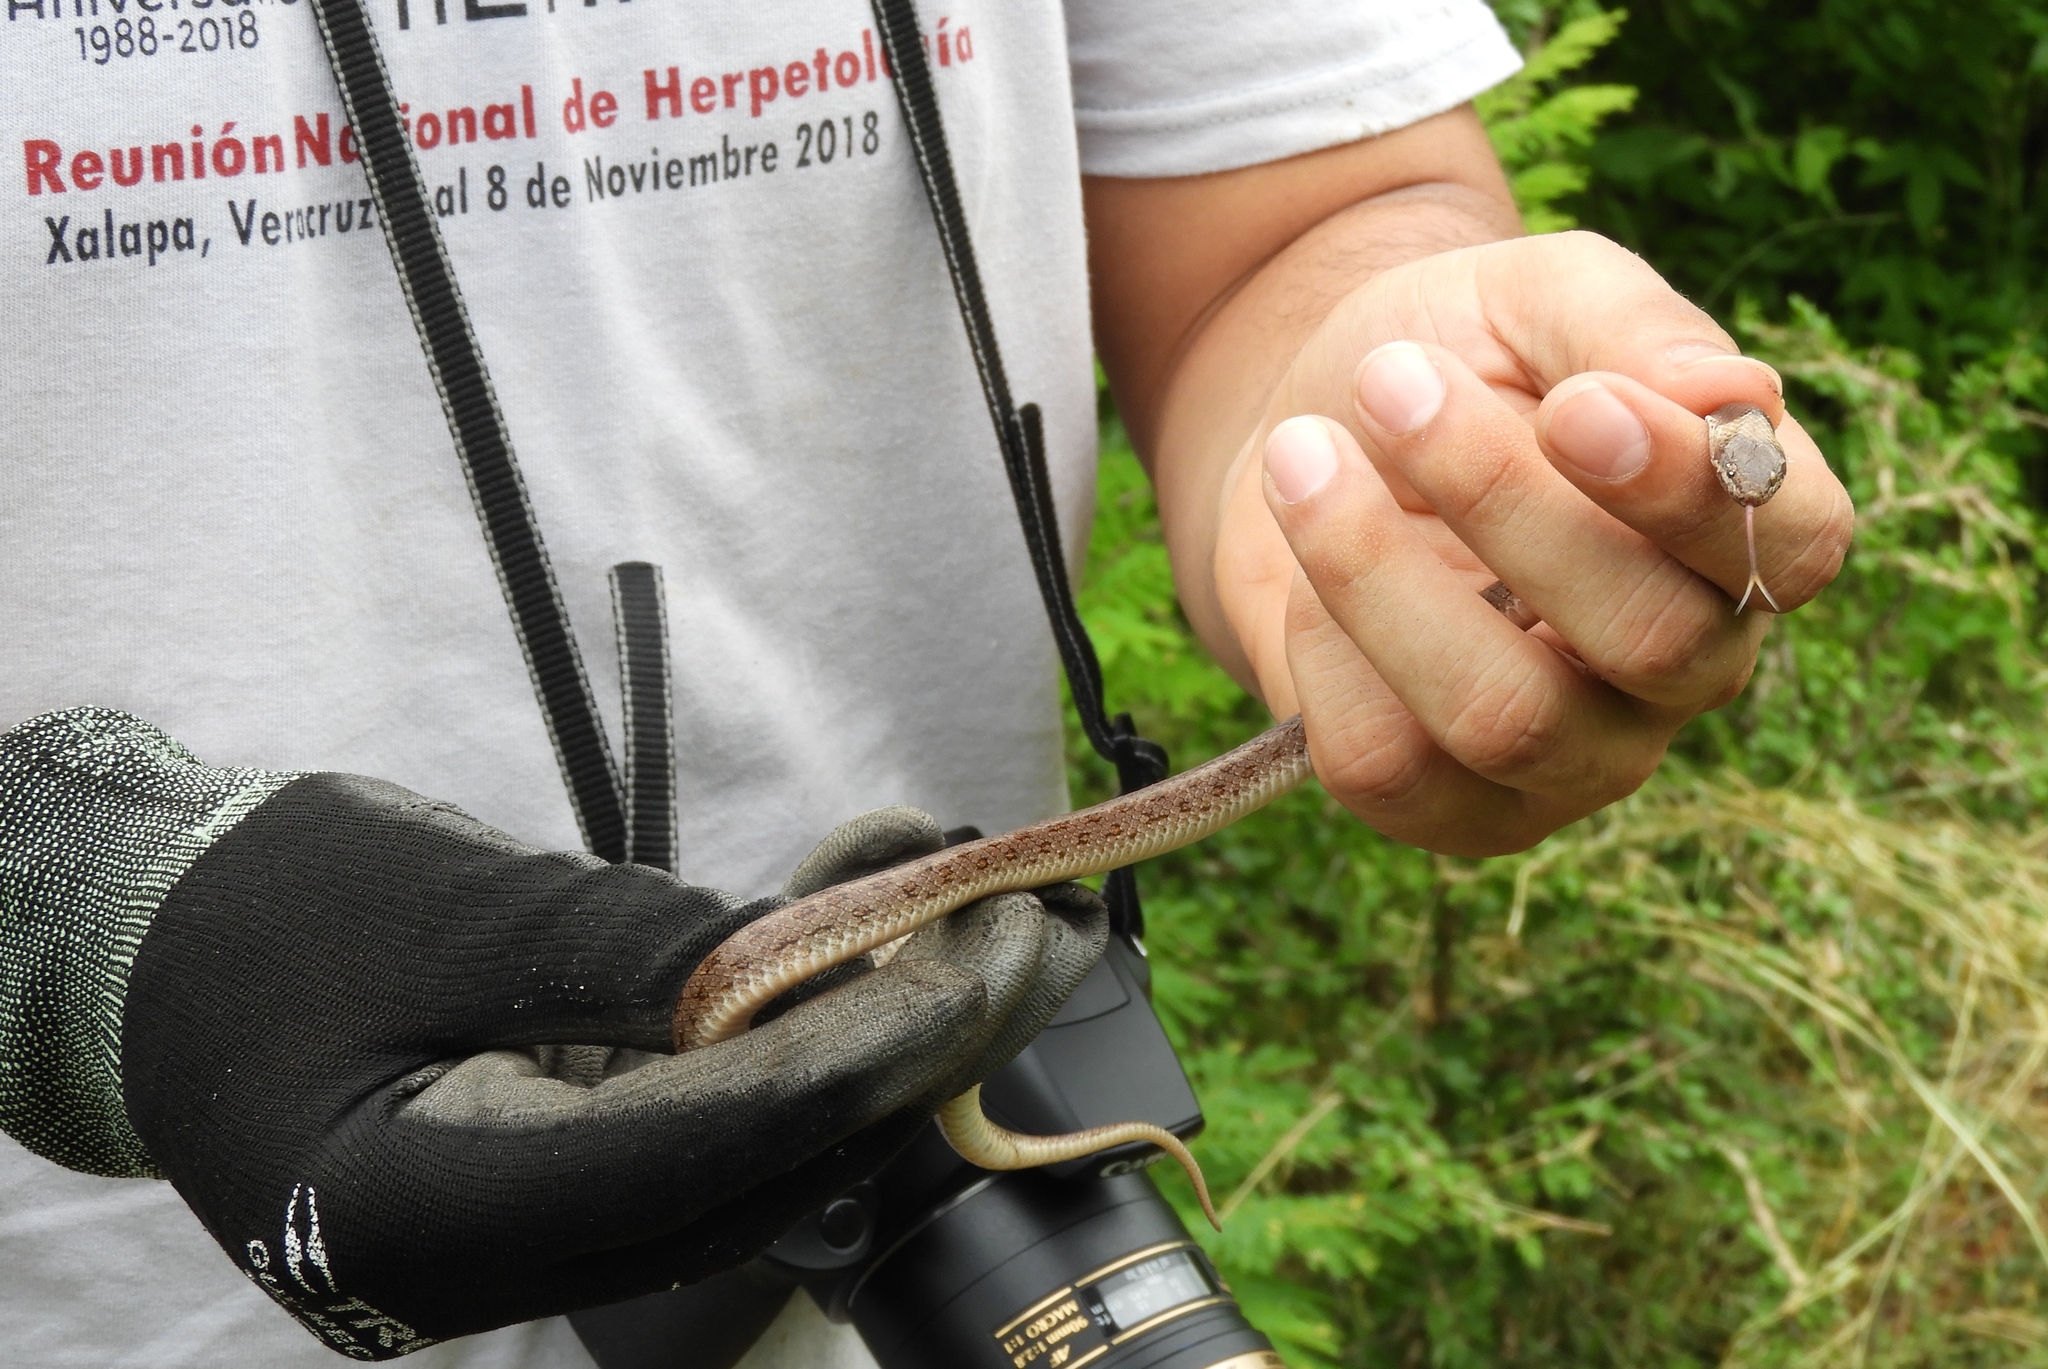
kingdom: Animalia
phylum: Chordata
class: Squamata
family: Colubridae
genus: Hypsiglena
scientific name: Hypsiglena torquata
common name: Night snake
